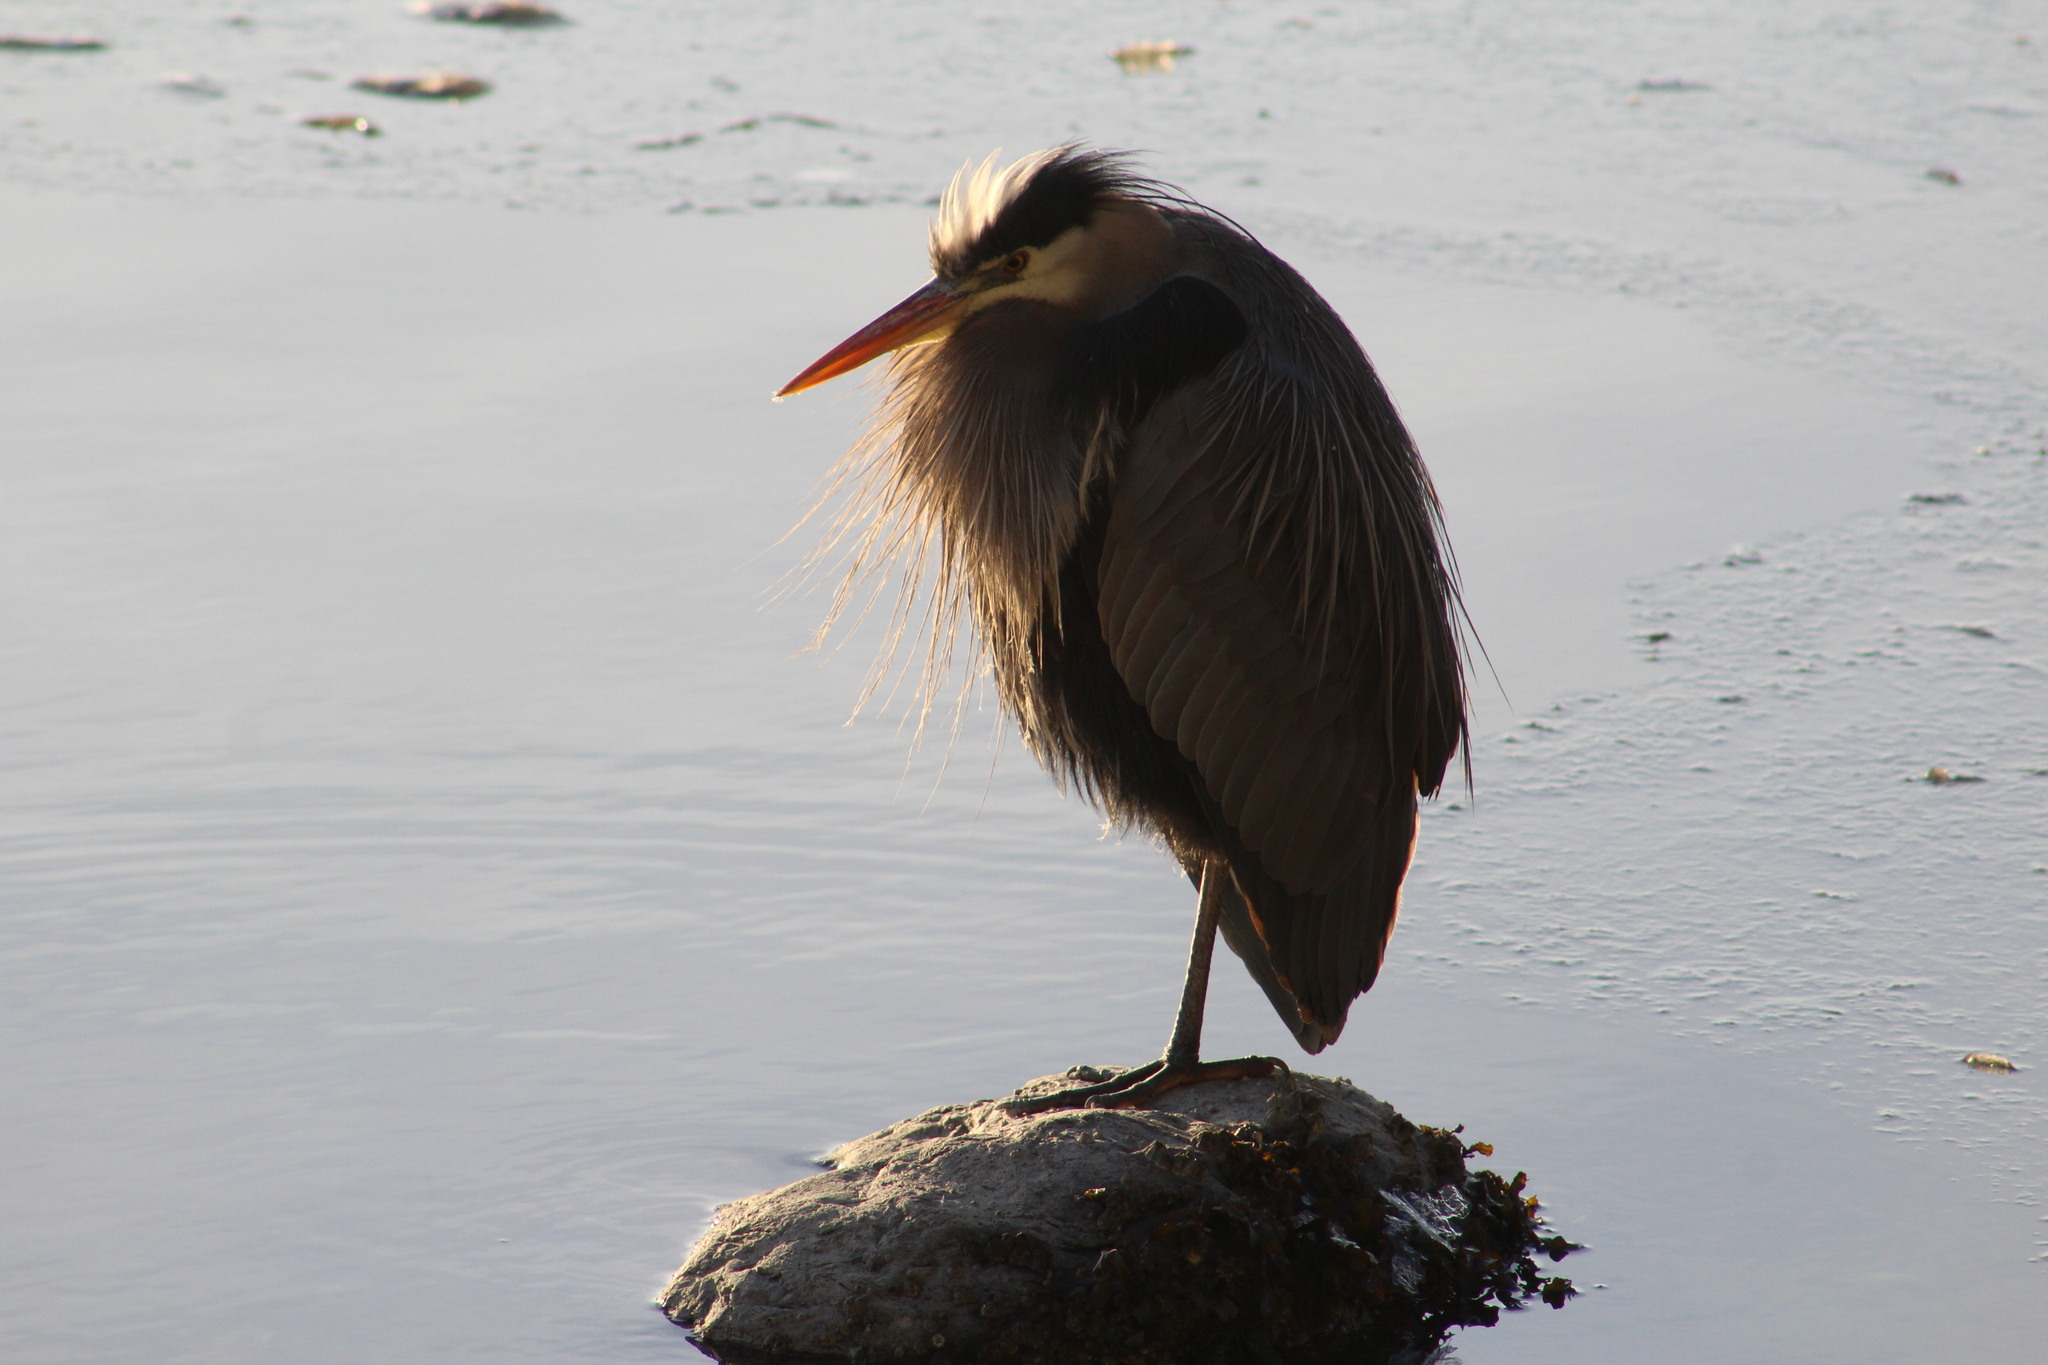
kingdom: Animalia
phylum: Chordata
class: Aves
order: Pelecaniformes
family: Ardeidae
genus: Ardea
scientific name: Ardea herodias
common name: Great blue heron
